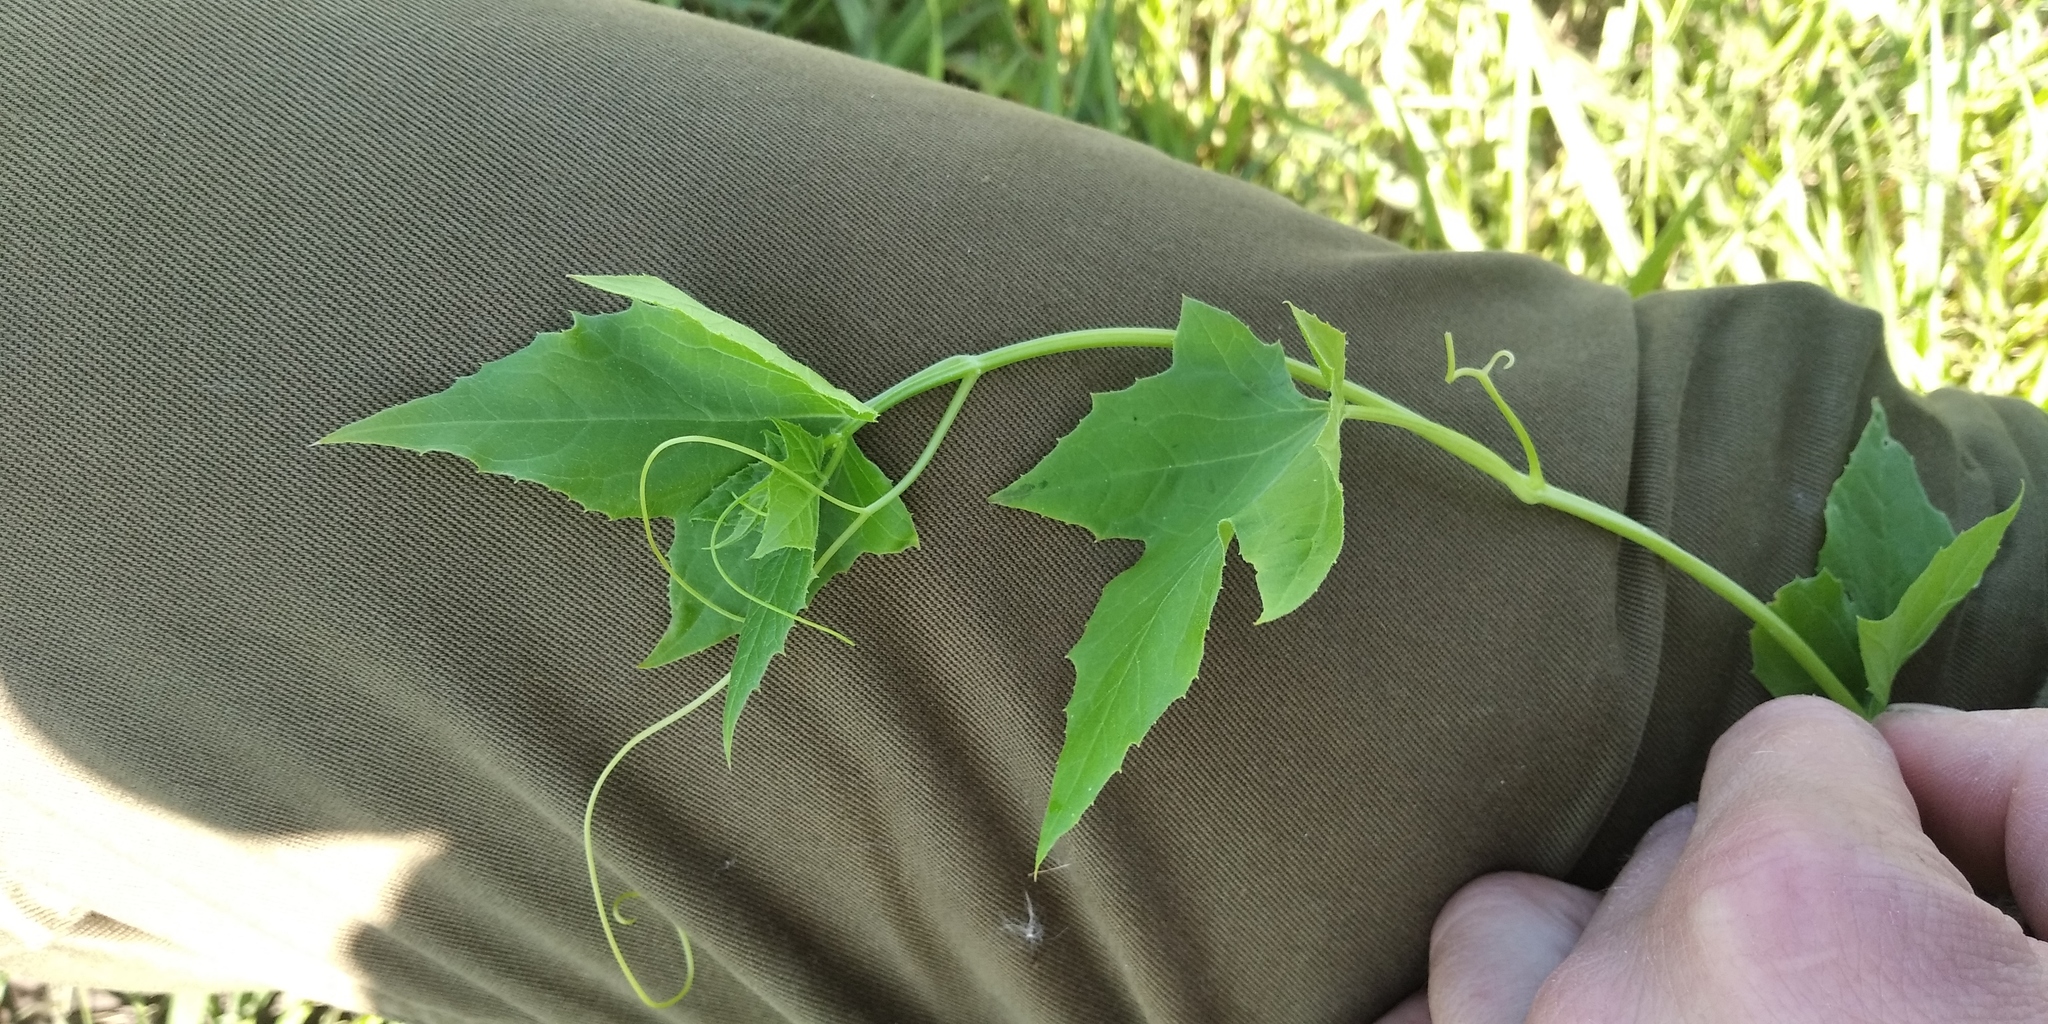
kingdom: Plantae
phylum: Tracheophyta
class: Magnoliopsida
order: Cucurbitales
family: Cucurbitaceae
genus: Echinocystis
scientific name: Echinocystis lobata
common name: Wild cucumber
